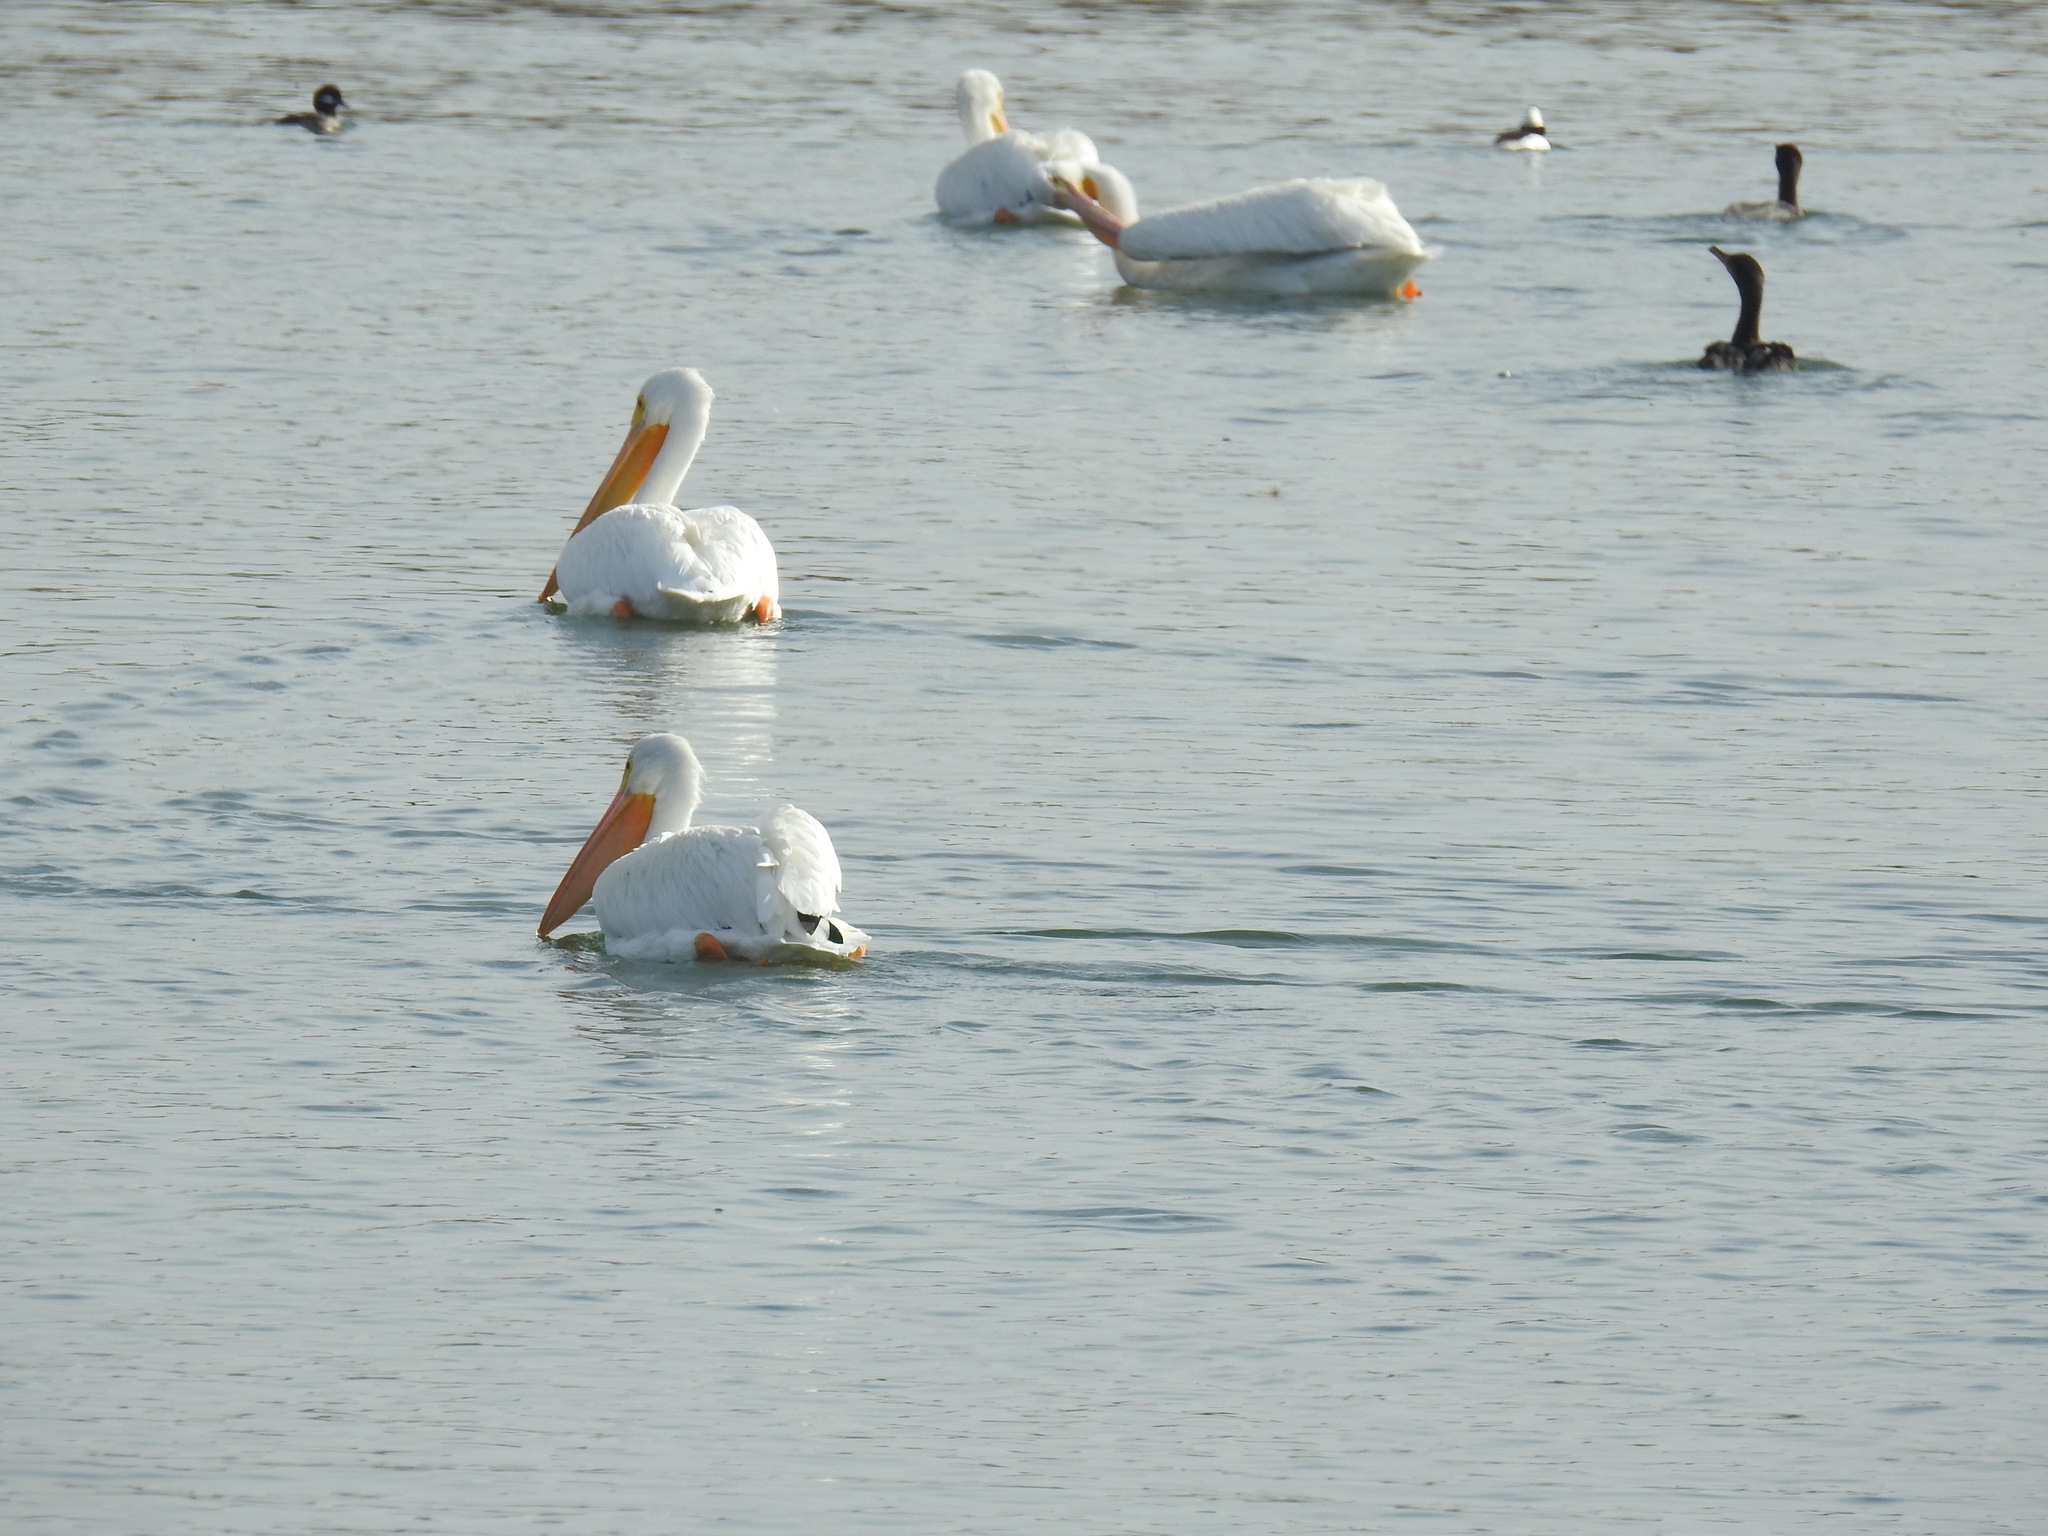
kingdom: Animalia
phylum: Chordata
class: Aves
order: Pelecaniformes
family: Pelecanidae
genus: Pelecanus
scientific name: Pelecanus erythrorhynchos
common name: American white pelican
